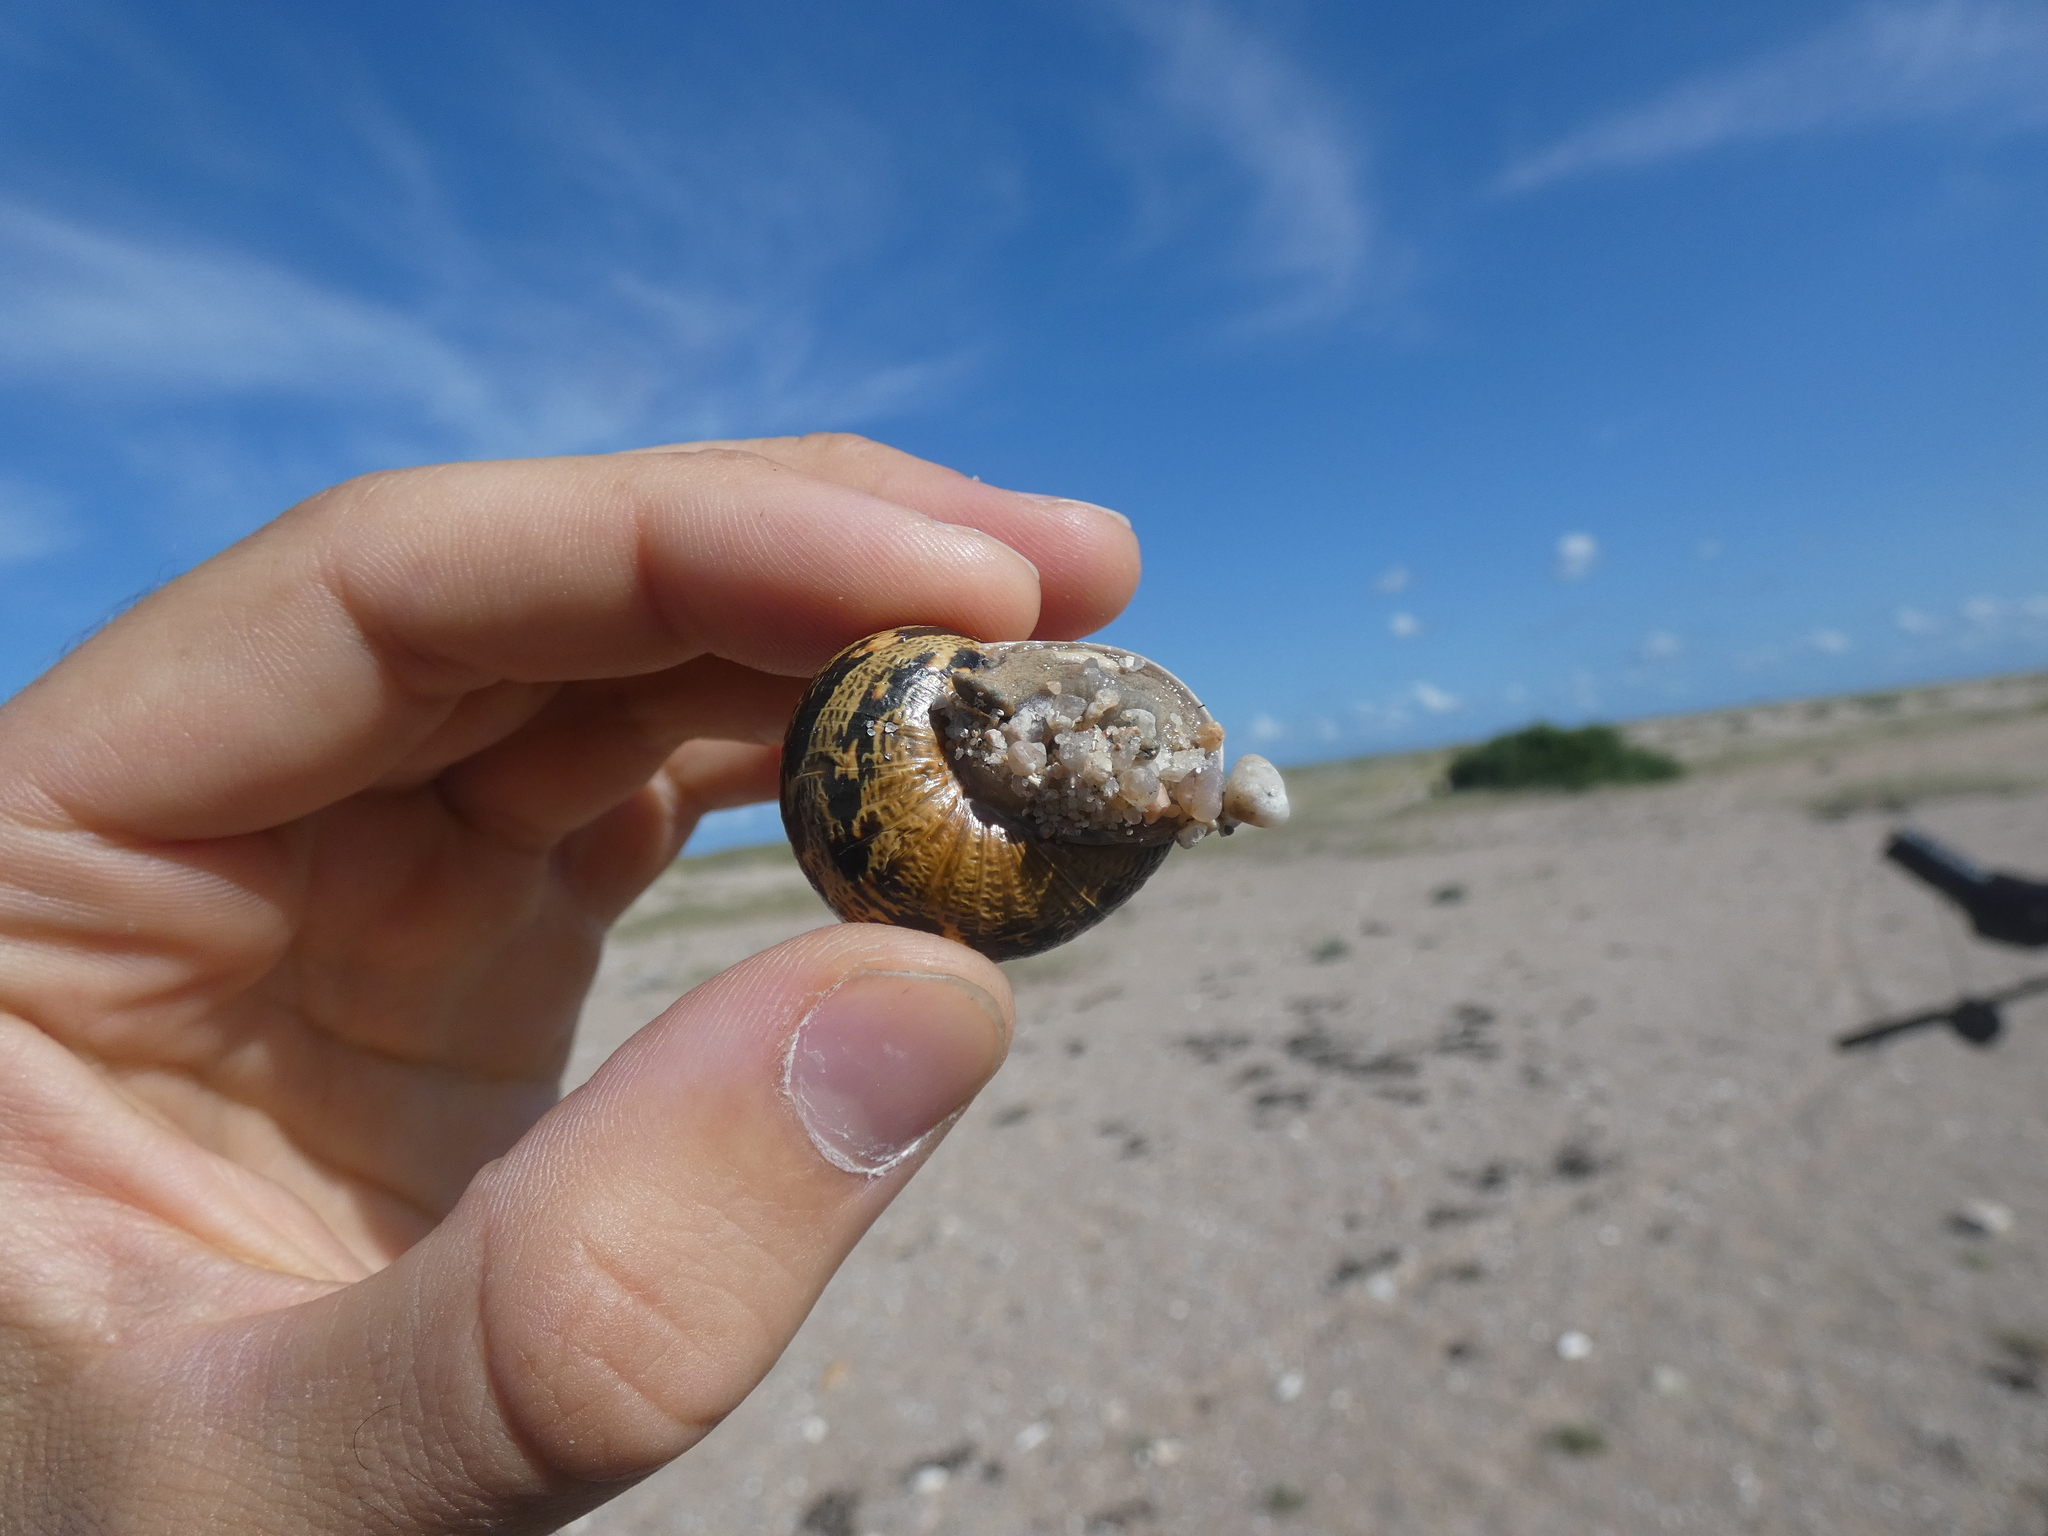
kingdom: Animalia
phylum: Mollusca
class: Gastropoda
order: Stylommatophora
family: Helicidae
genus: Cornu
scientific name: Cornu aspersum
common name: Brown garden snail
